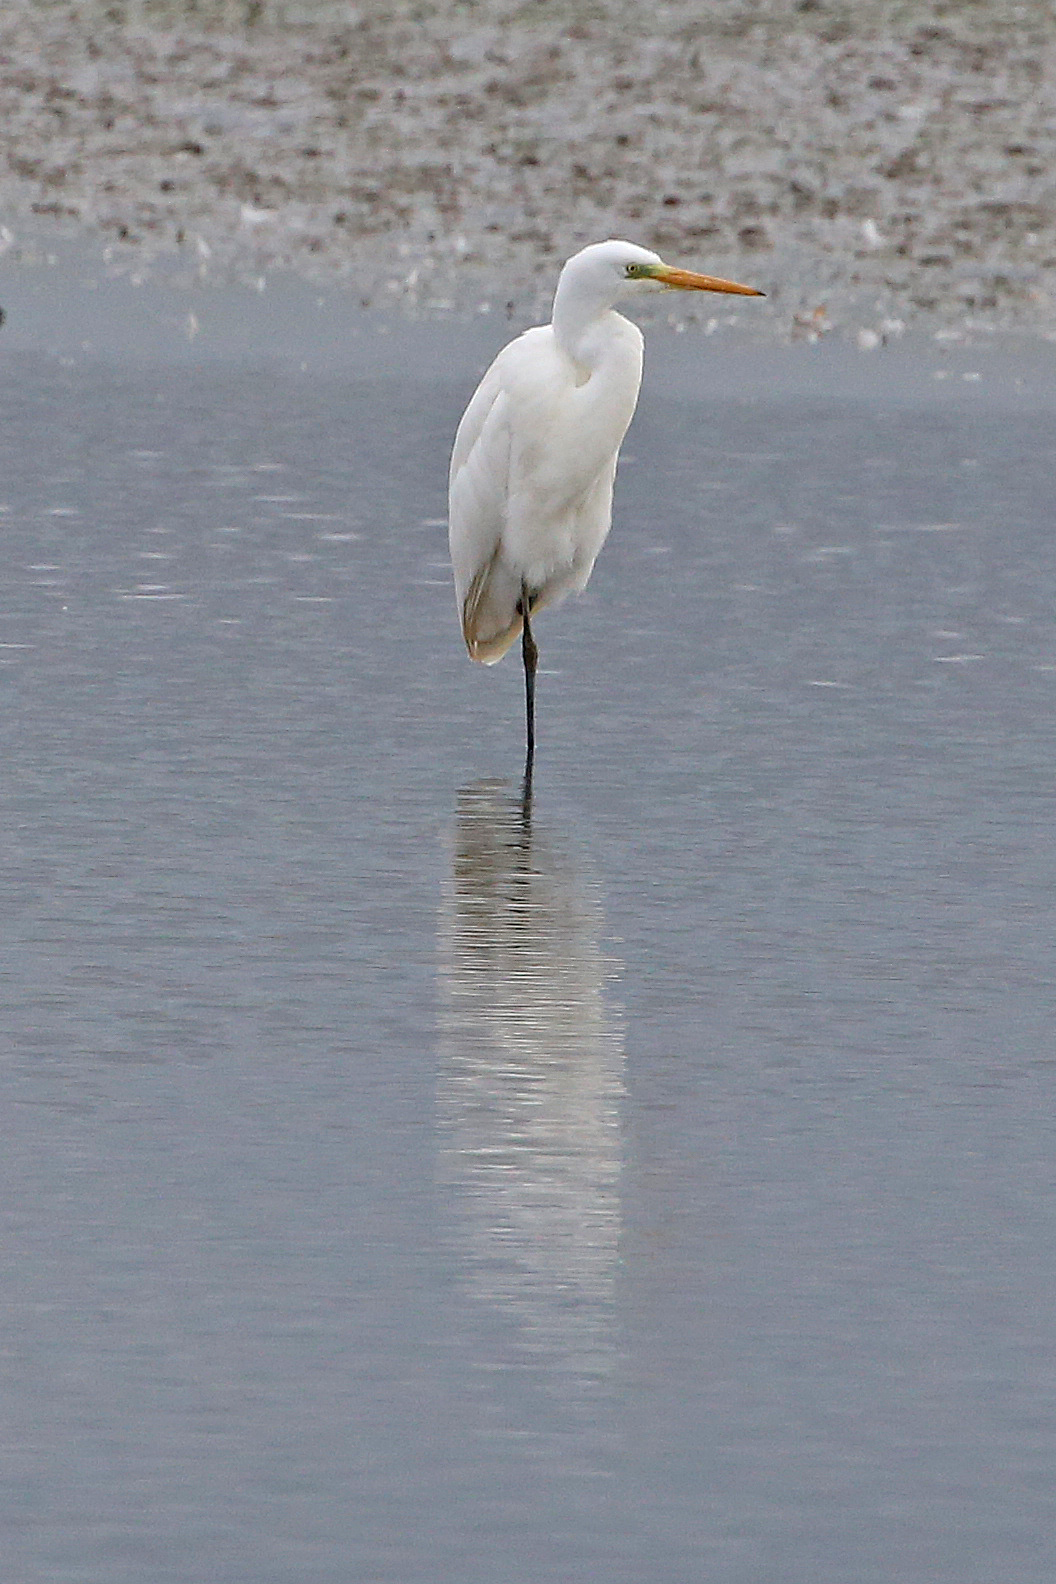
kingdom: Animalia
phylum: Chordata
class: Aves
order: Pelecaniformes
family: Ardeidae
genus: Ardea
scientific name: Ardea alba
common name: Great egret
